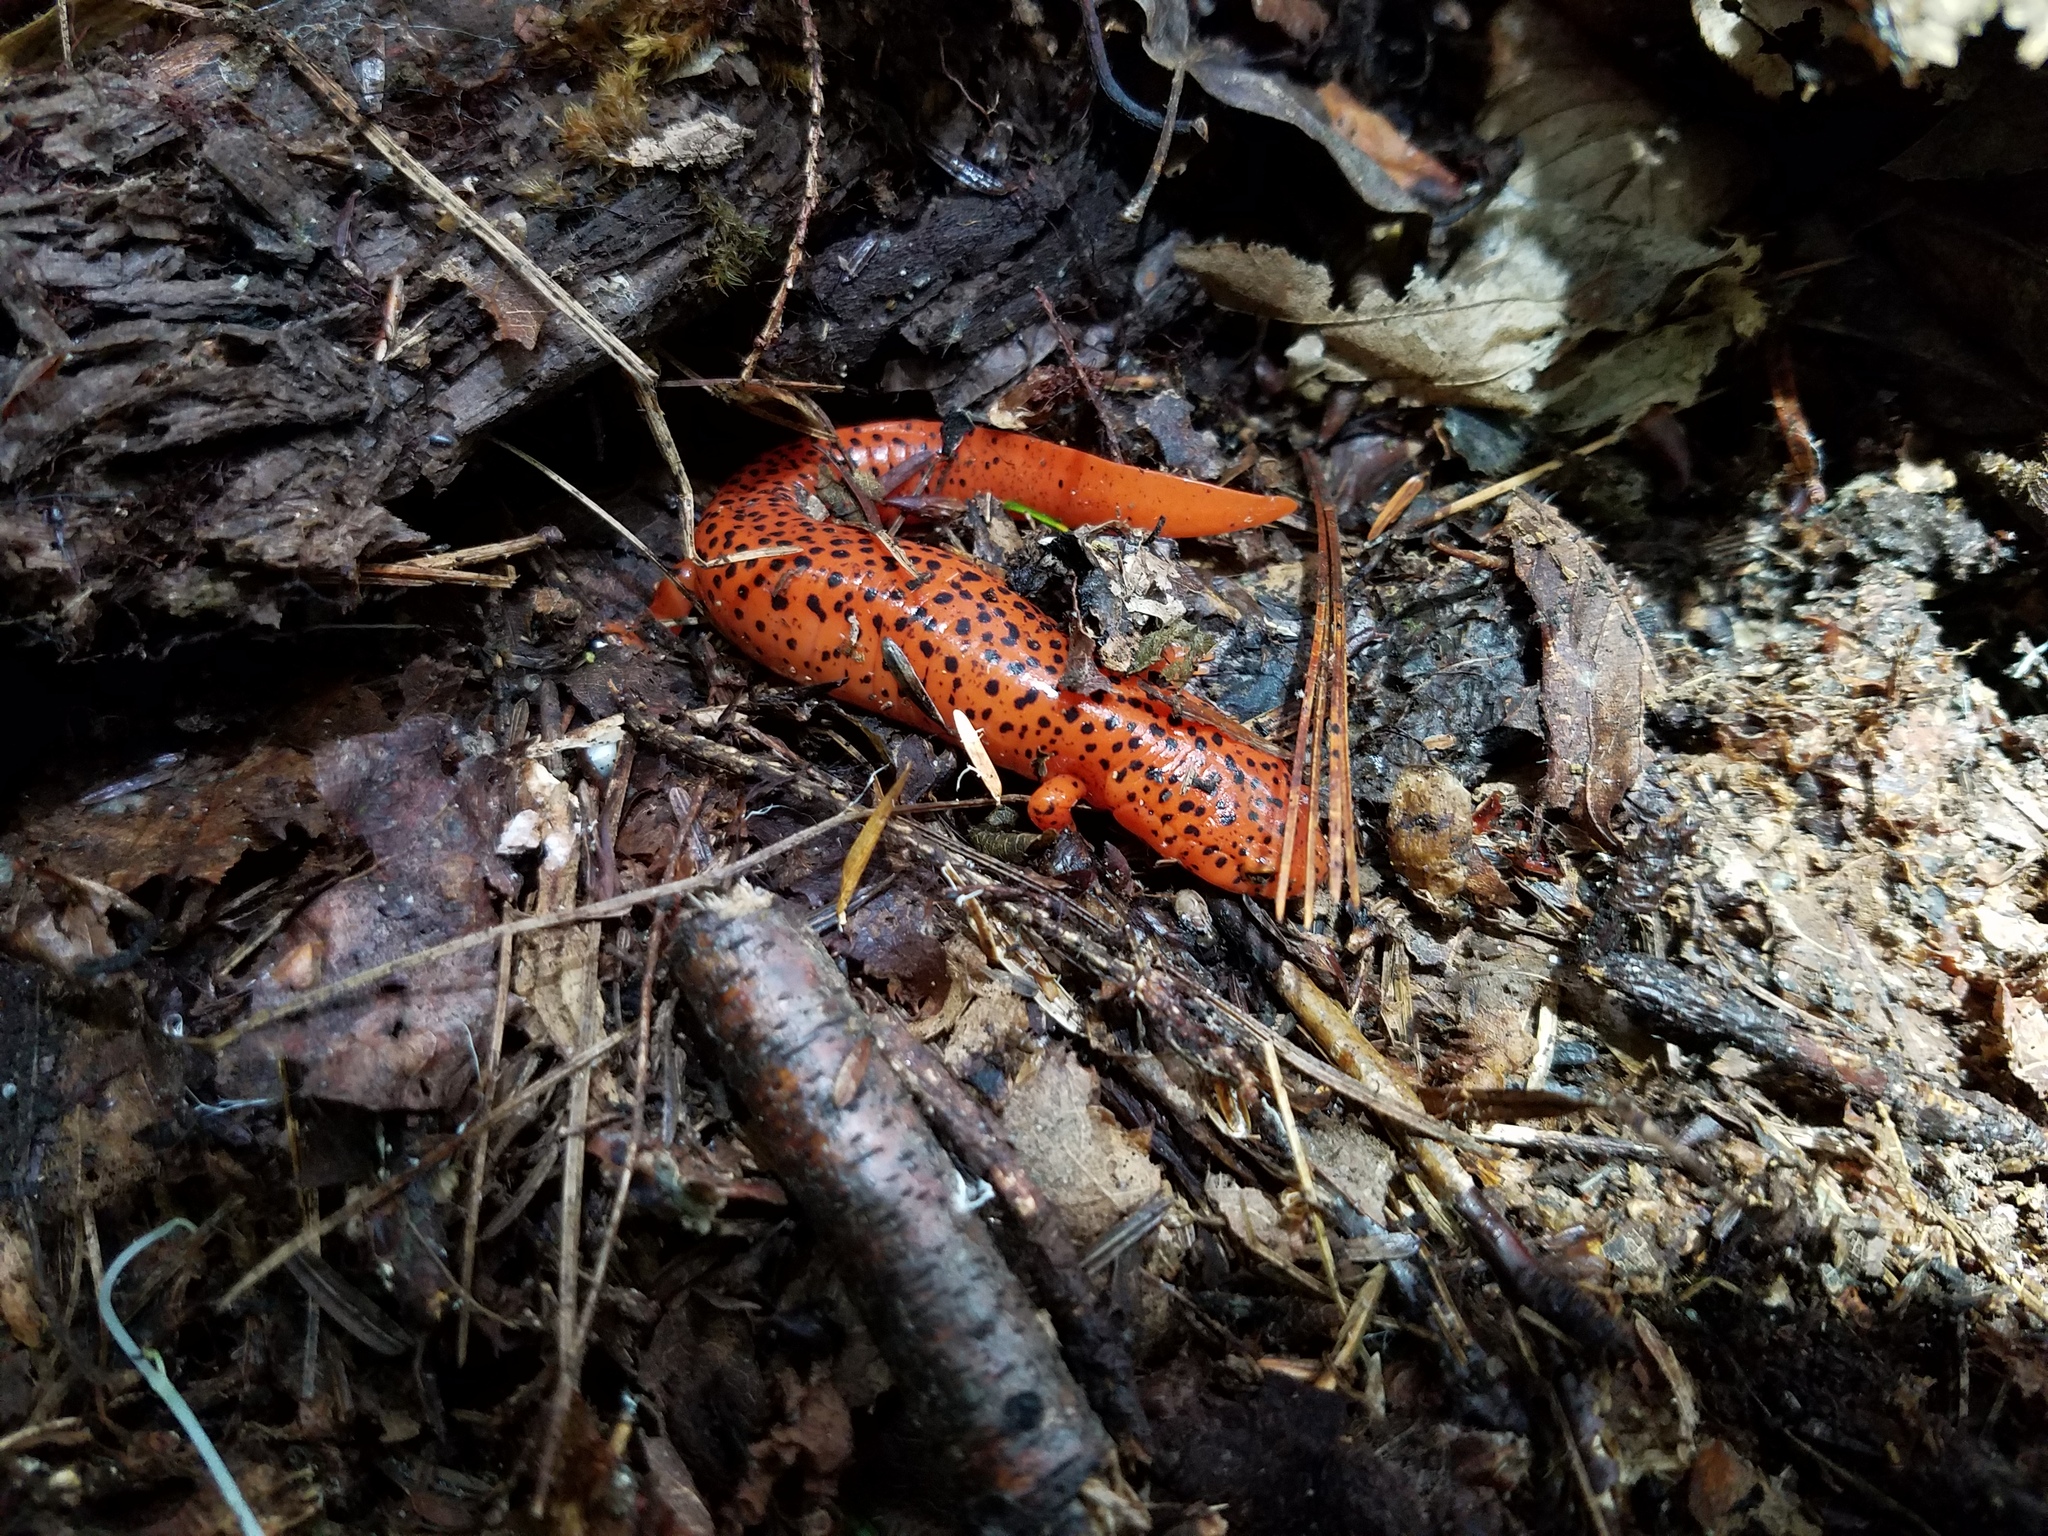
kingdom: Animalia
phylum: Chordata
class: Amphibia
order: Caudata
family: Plethodontidae
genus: Pseudotriton
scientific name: Pseudotriton ruber
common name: Red salamander
